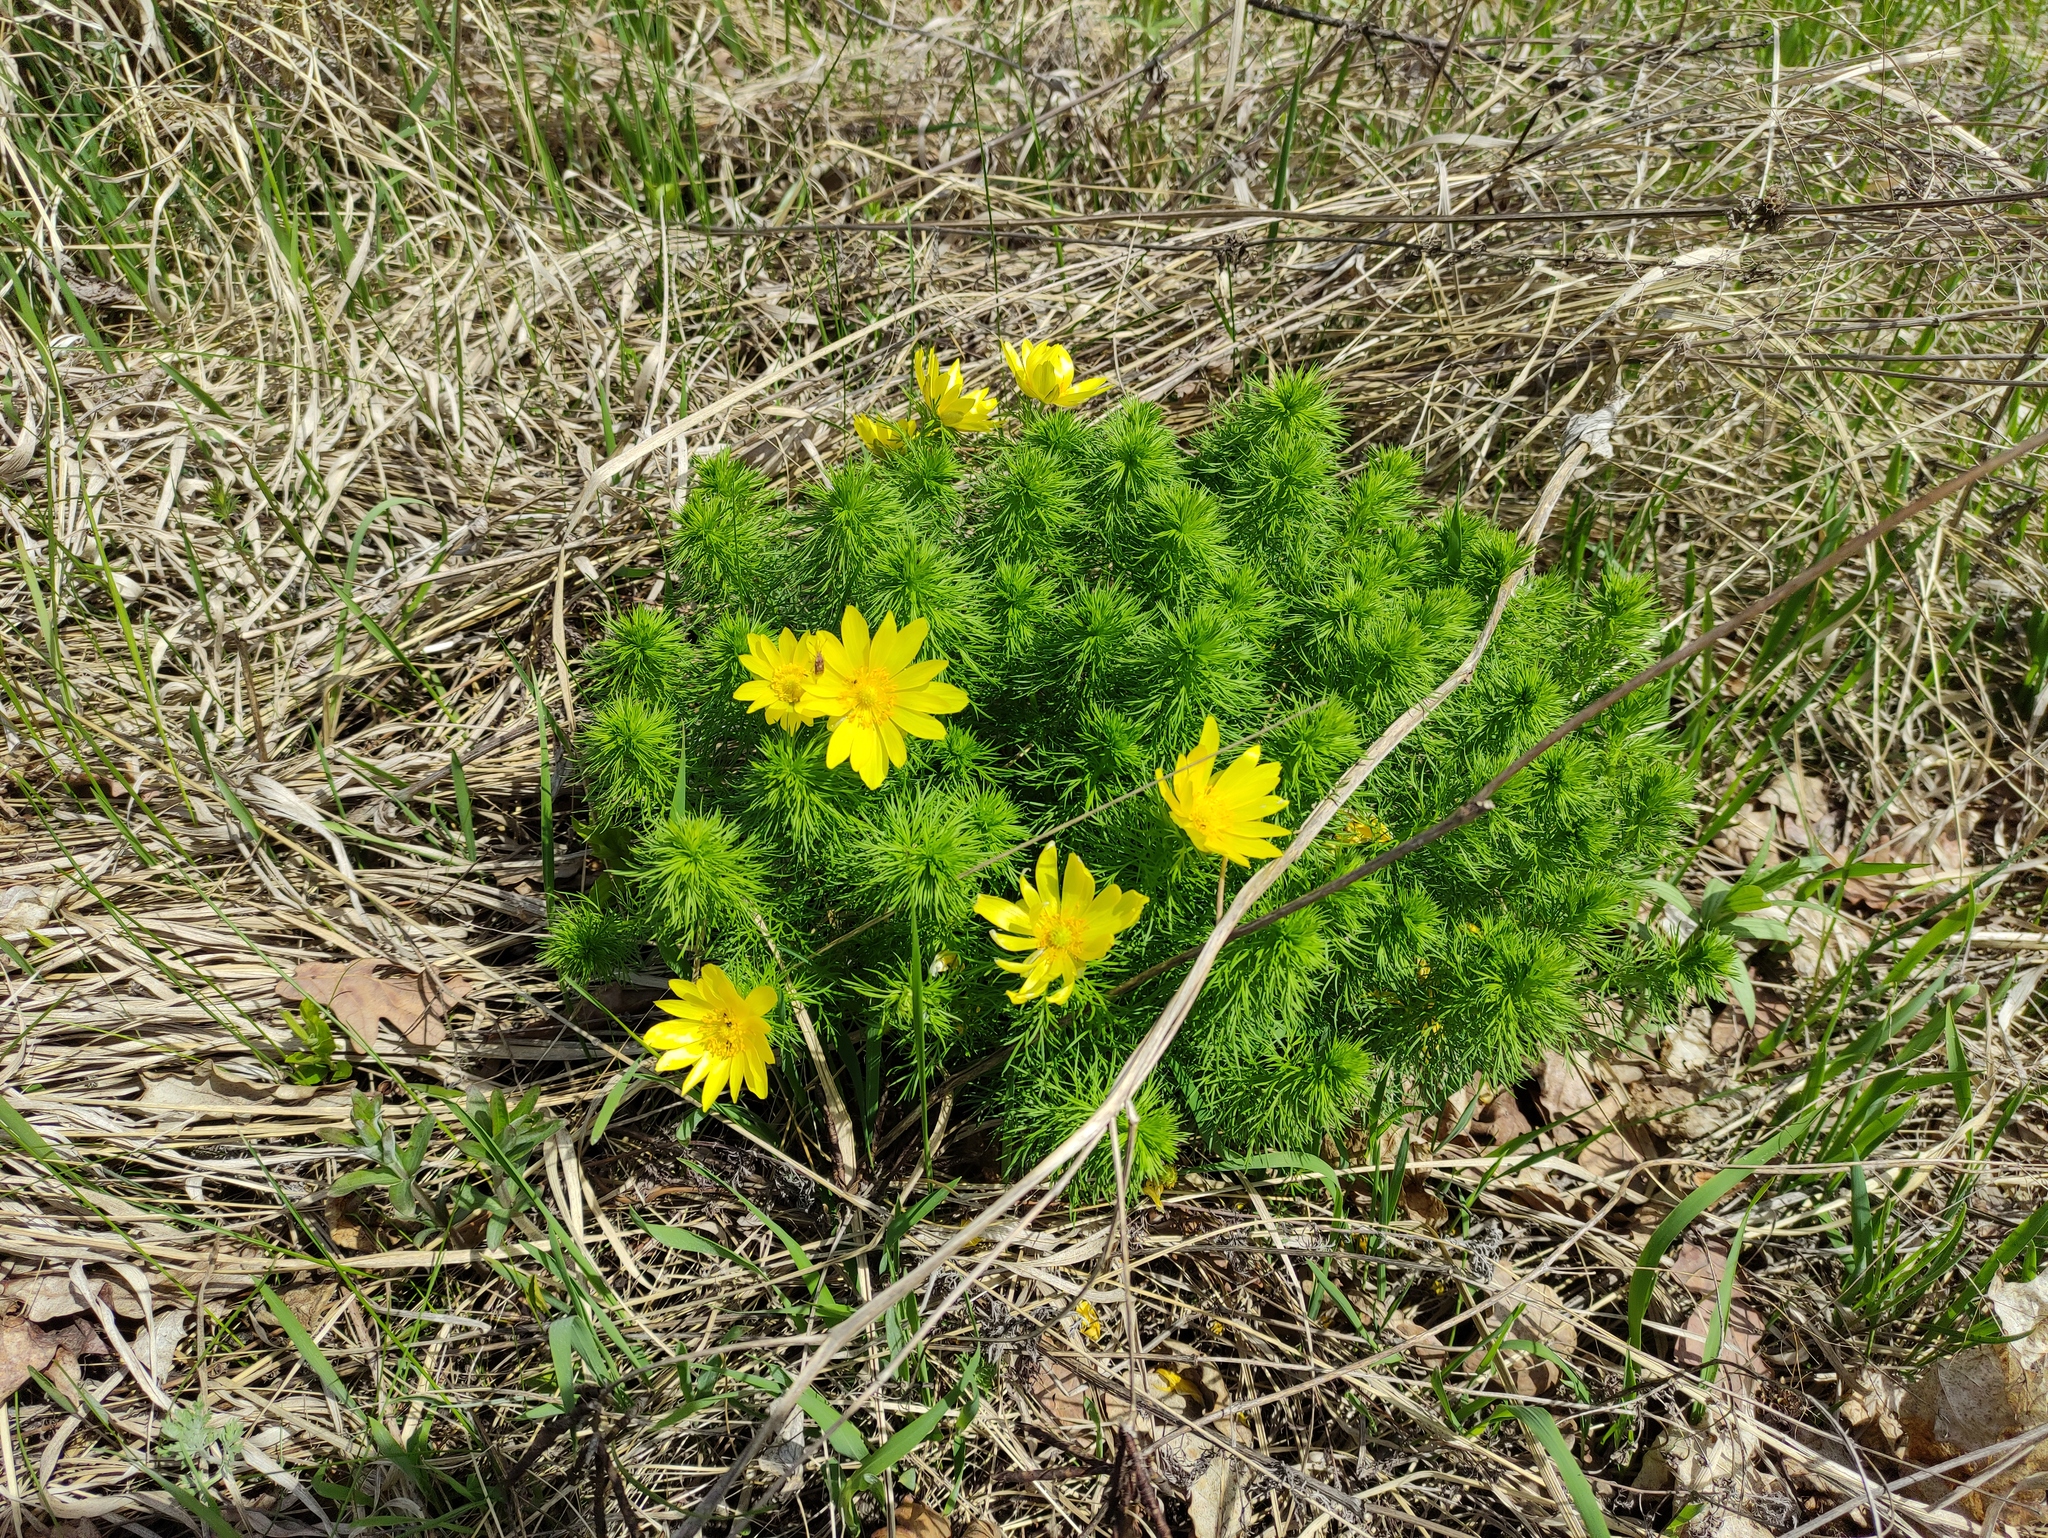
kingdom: Plantae
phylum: Tracheophyta
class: Magnoliopsida
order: Ranunculales
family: Ranunculaceae
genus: Adonis
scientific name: Adonis vernalis
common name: Yellow pheasants-eye
